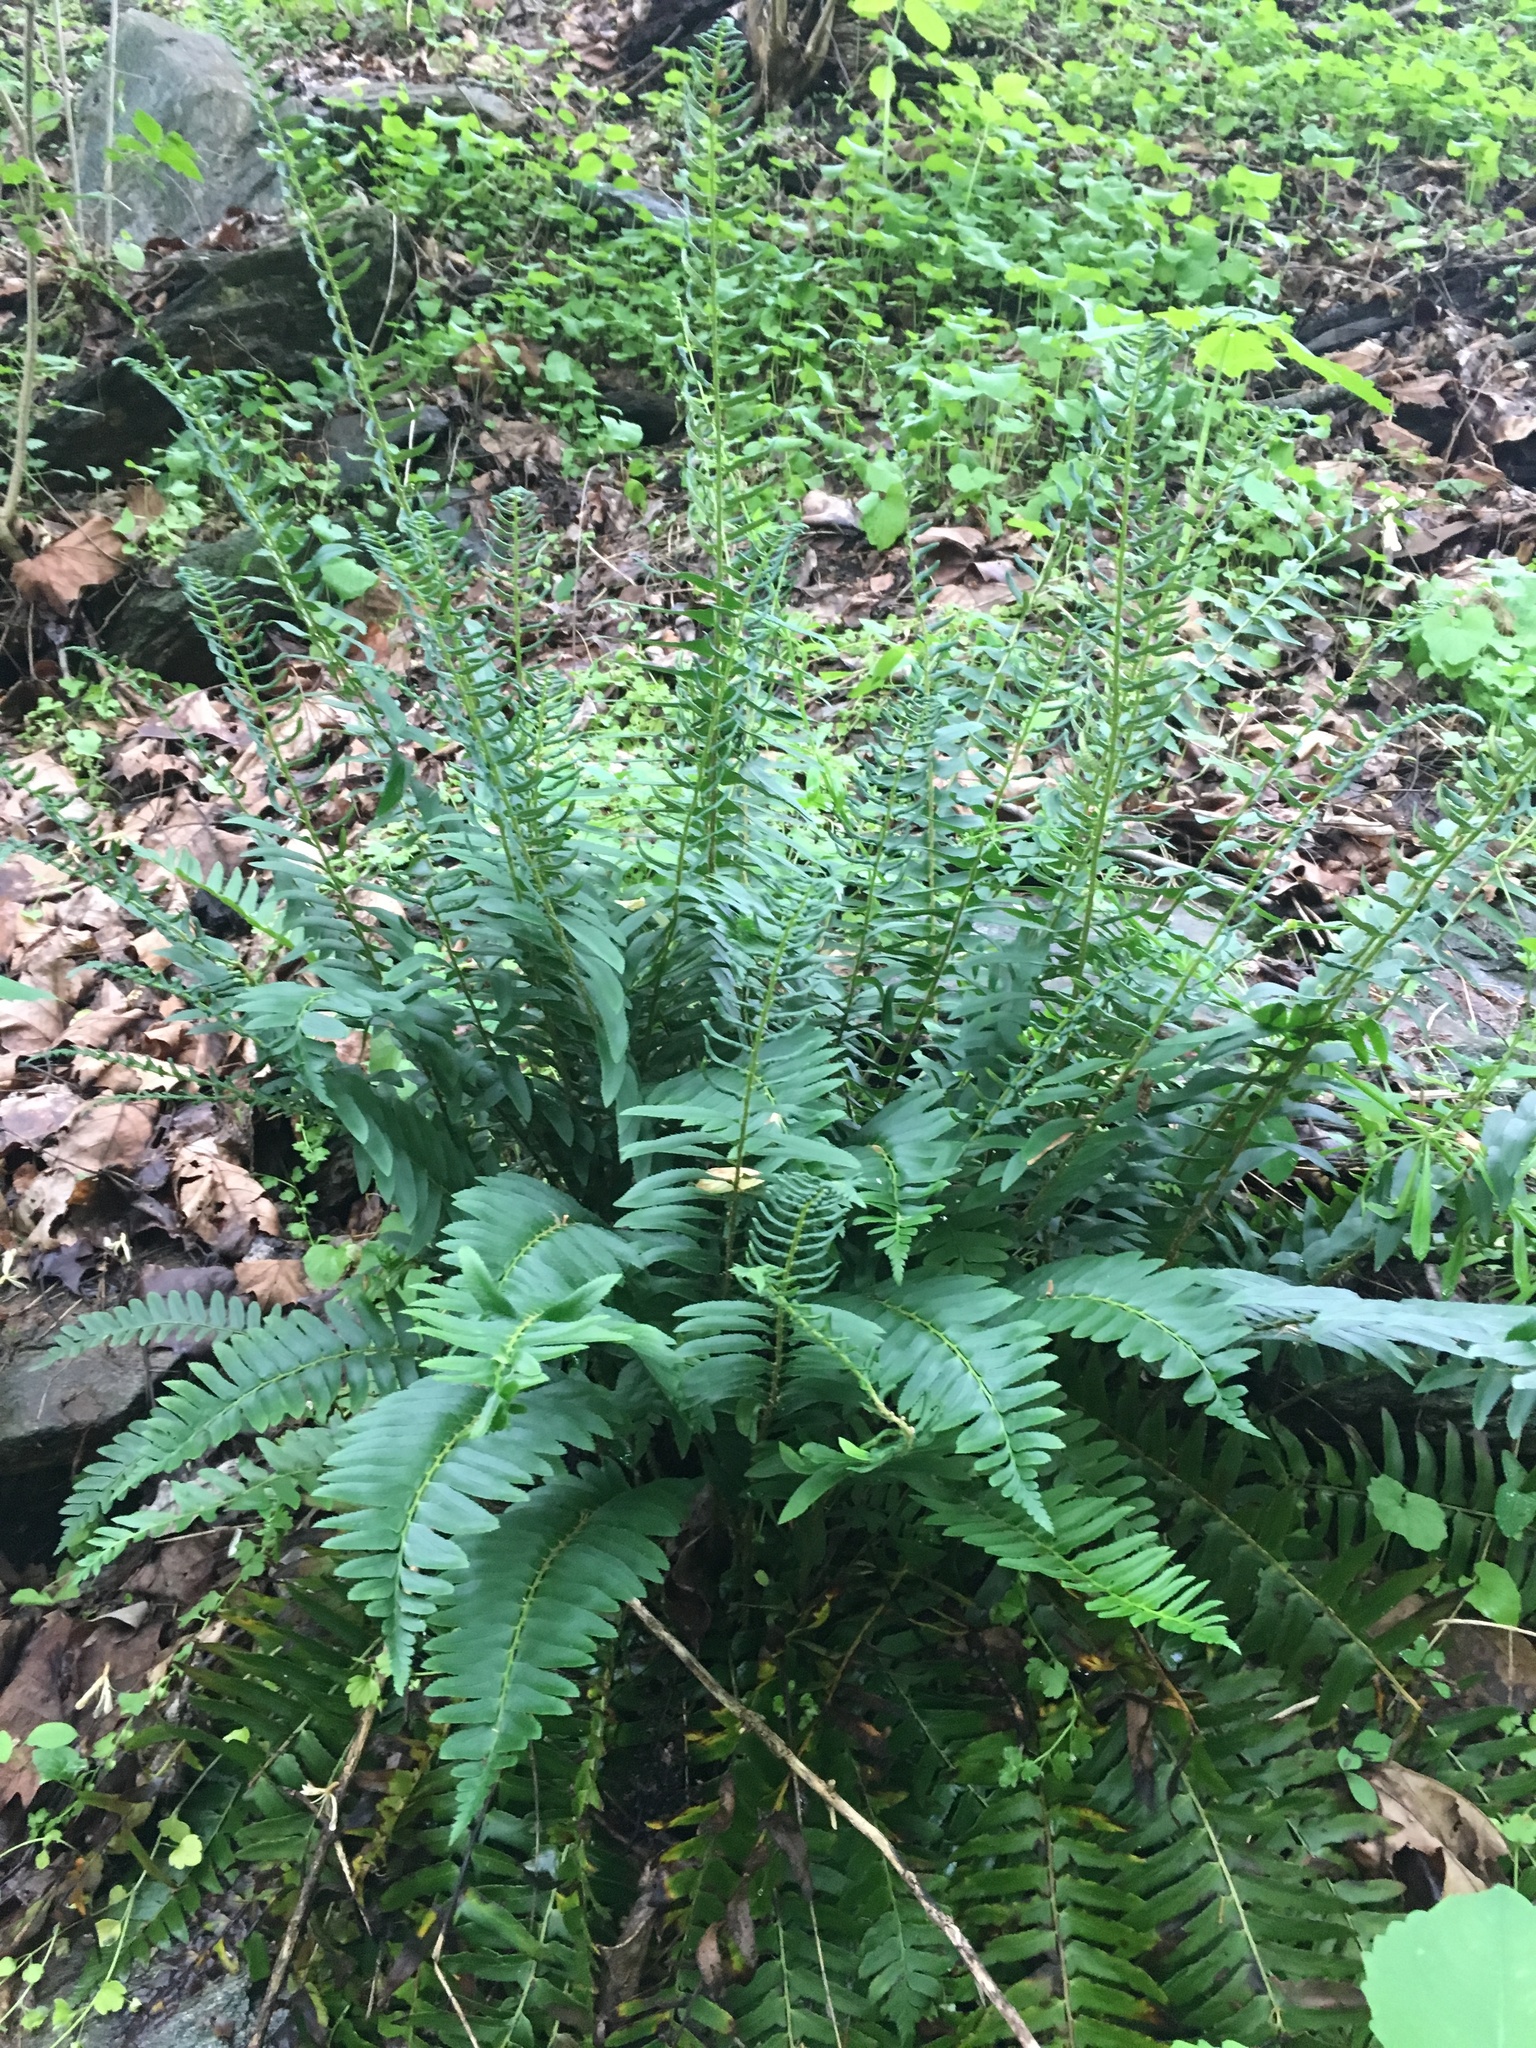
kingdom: Plantae
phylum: Tracheophyta
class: Polypodiopsida
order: Polypodiales
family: Dryopteridaceae
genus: Polystichum
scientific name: Polystichum acrostichoides
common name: Christmas fern
